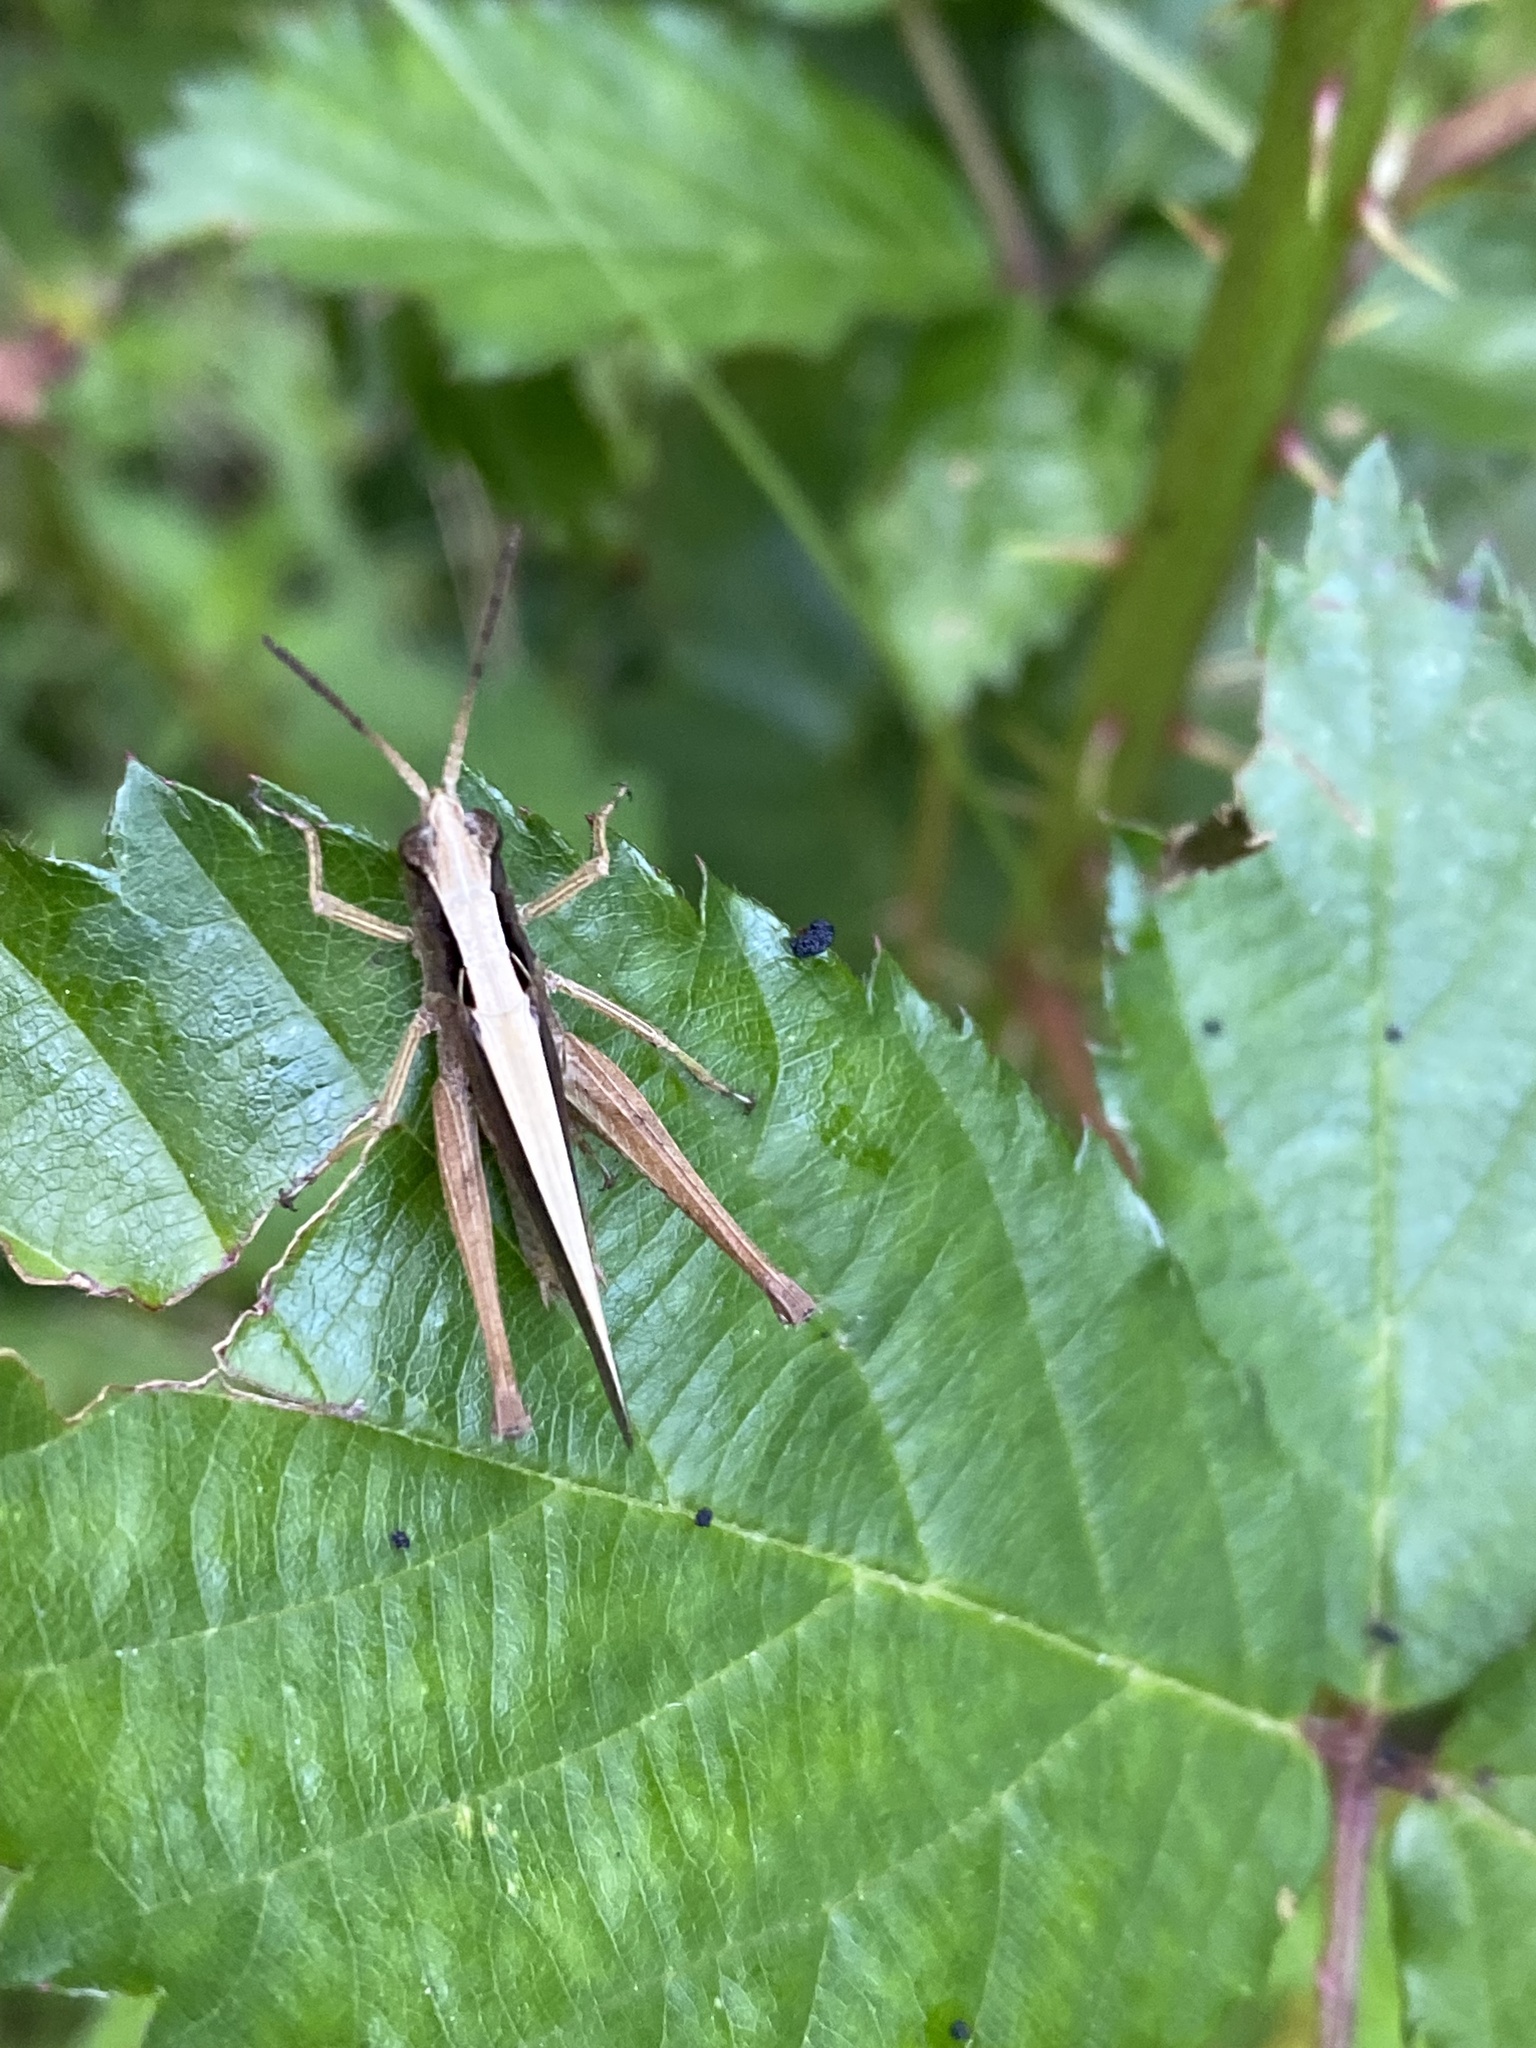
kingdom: Animalia
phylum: Arthropoda
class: Insecta
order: Orthoptera
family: Acrididae
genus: Orphula
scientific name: Orphula azteca
